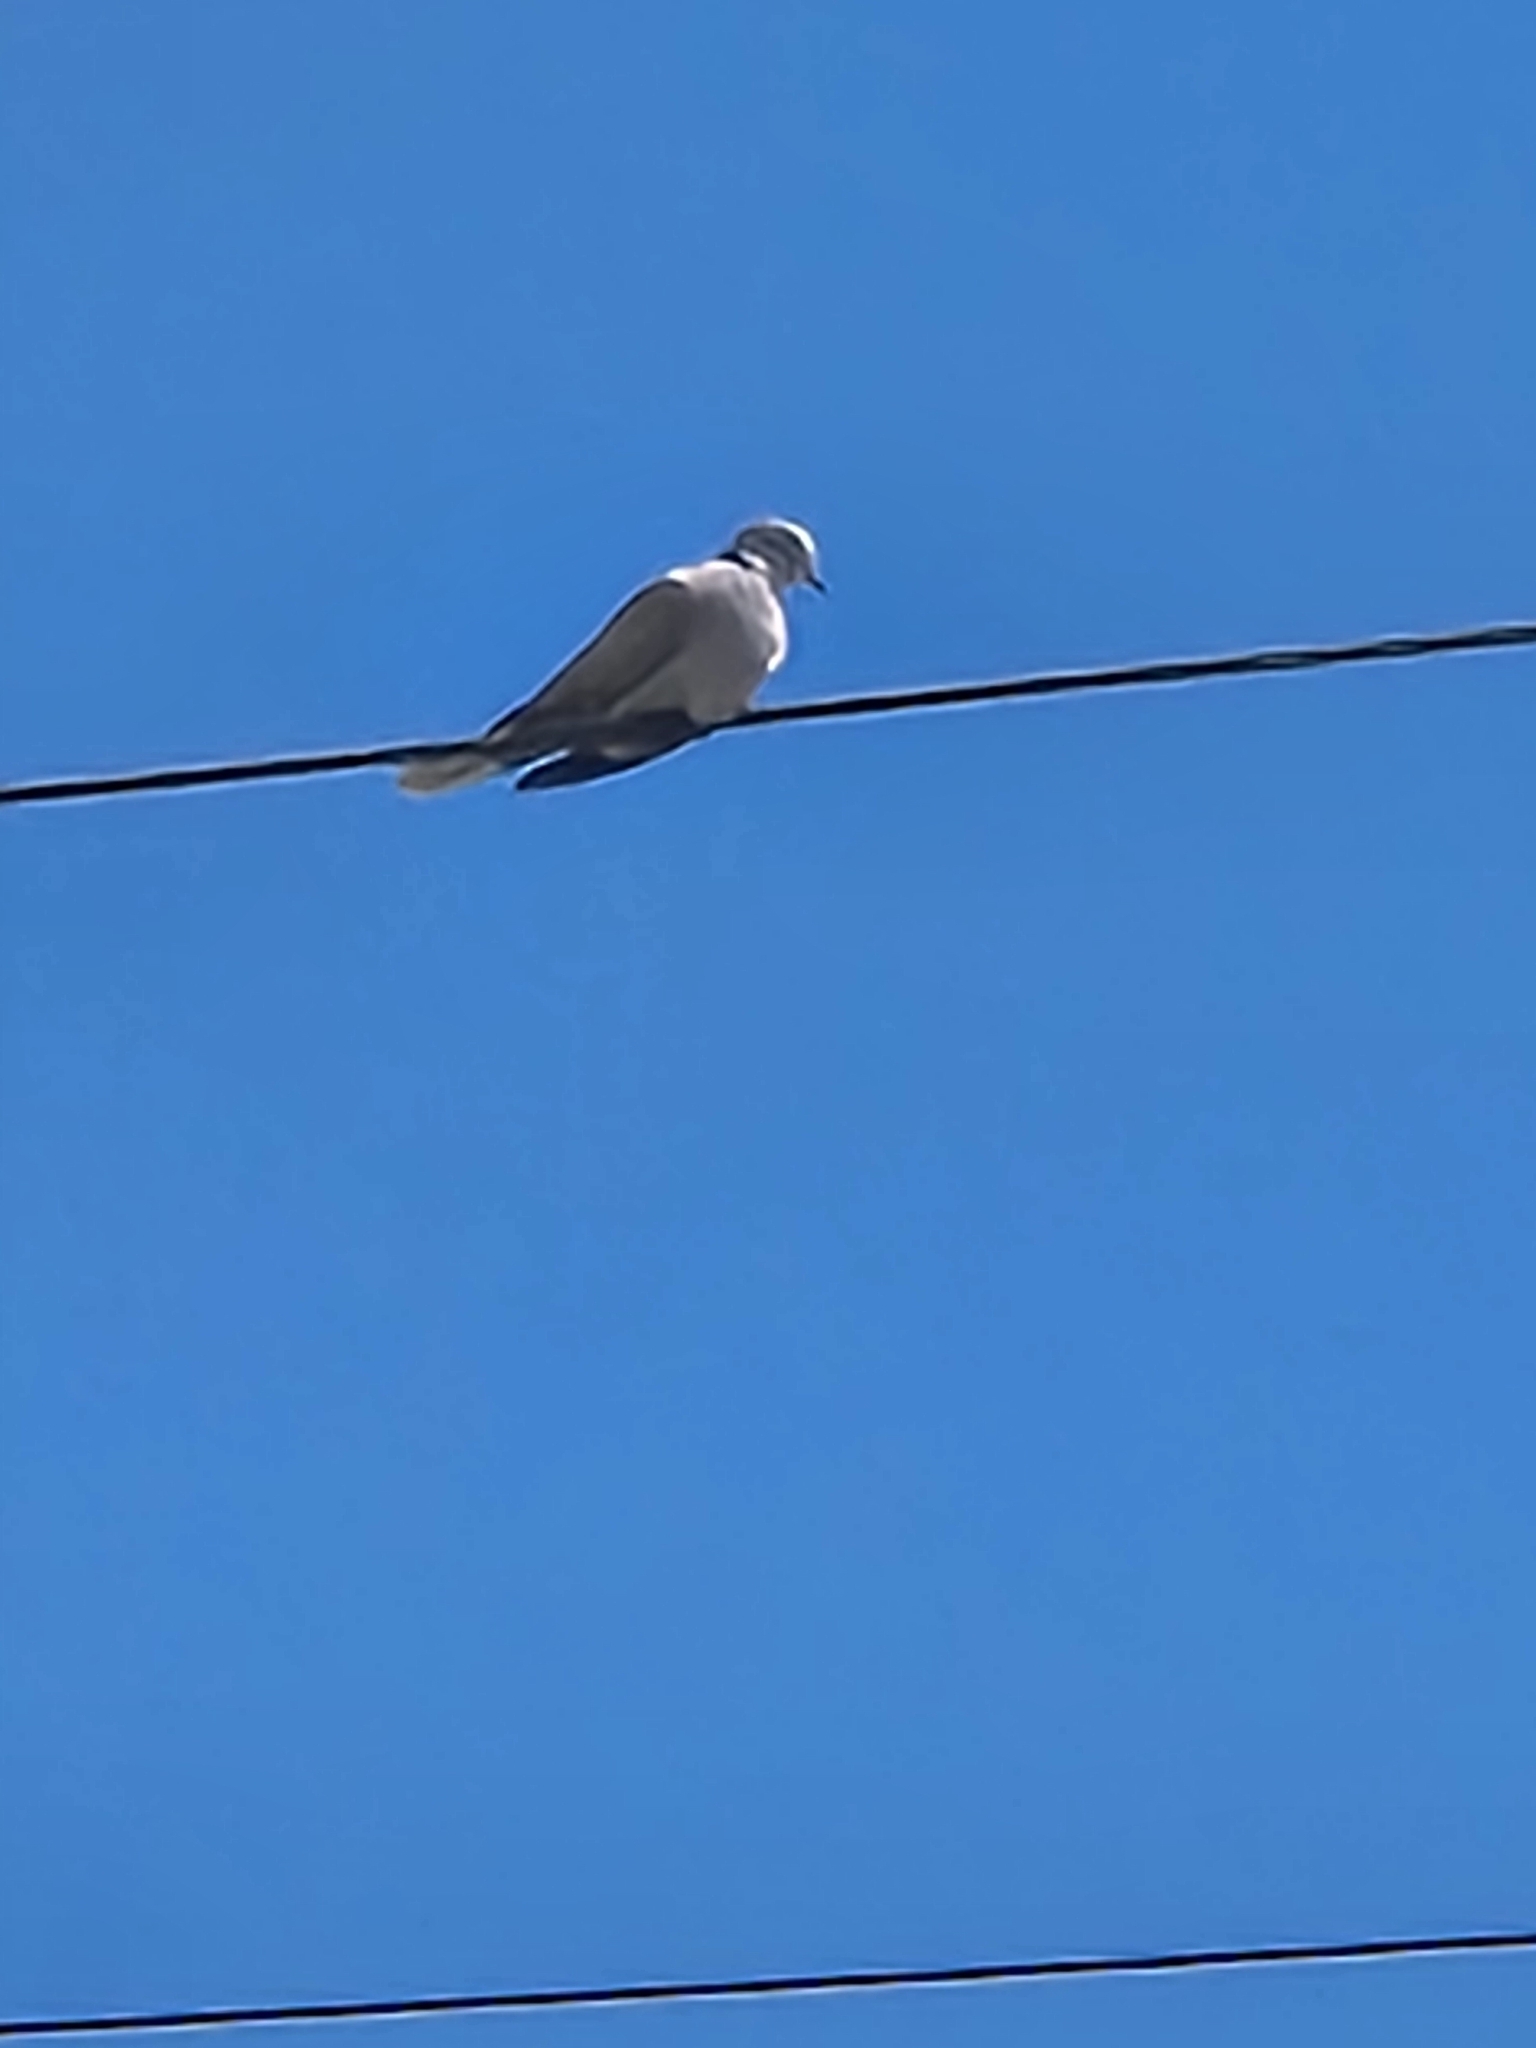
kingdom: Animalia
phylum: Chordata
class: Aves
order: Columbiformes
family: Columbidae
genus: Streptopelia
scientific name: Streptopelia decaocto
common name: Eurasian collared dove
